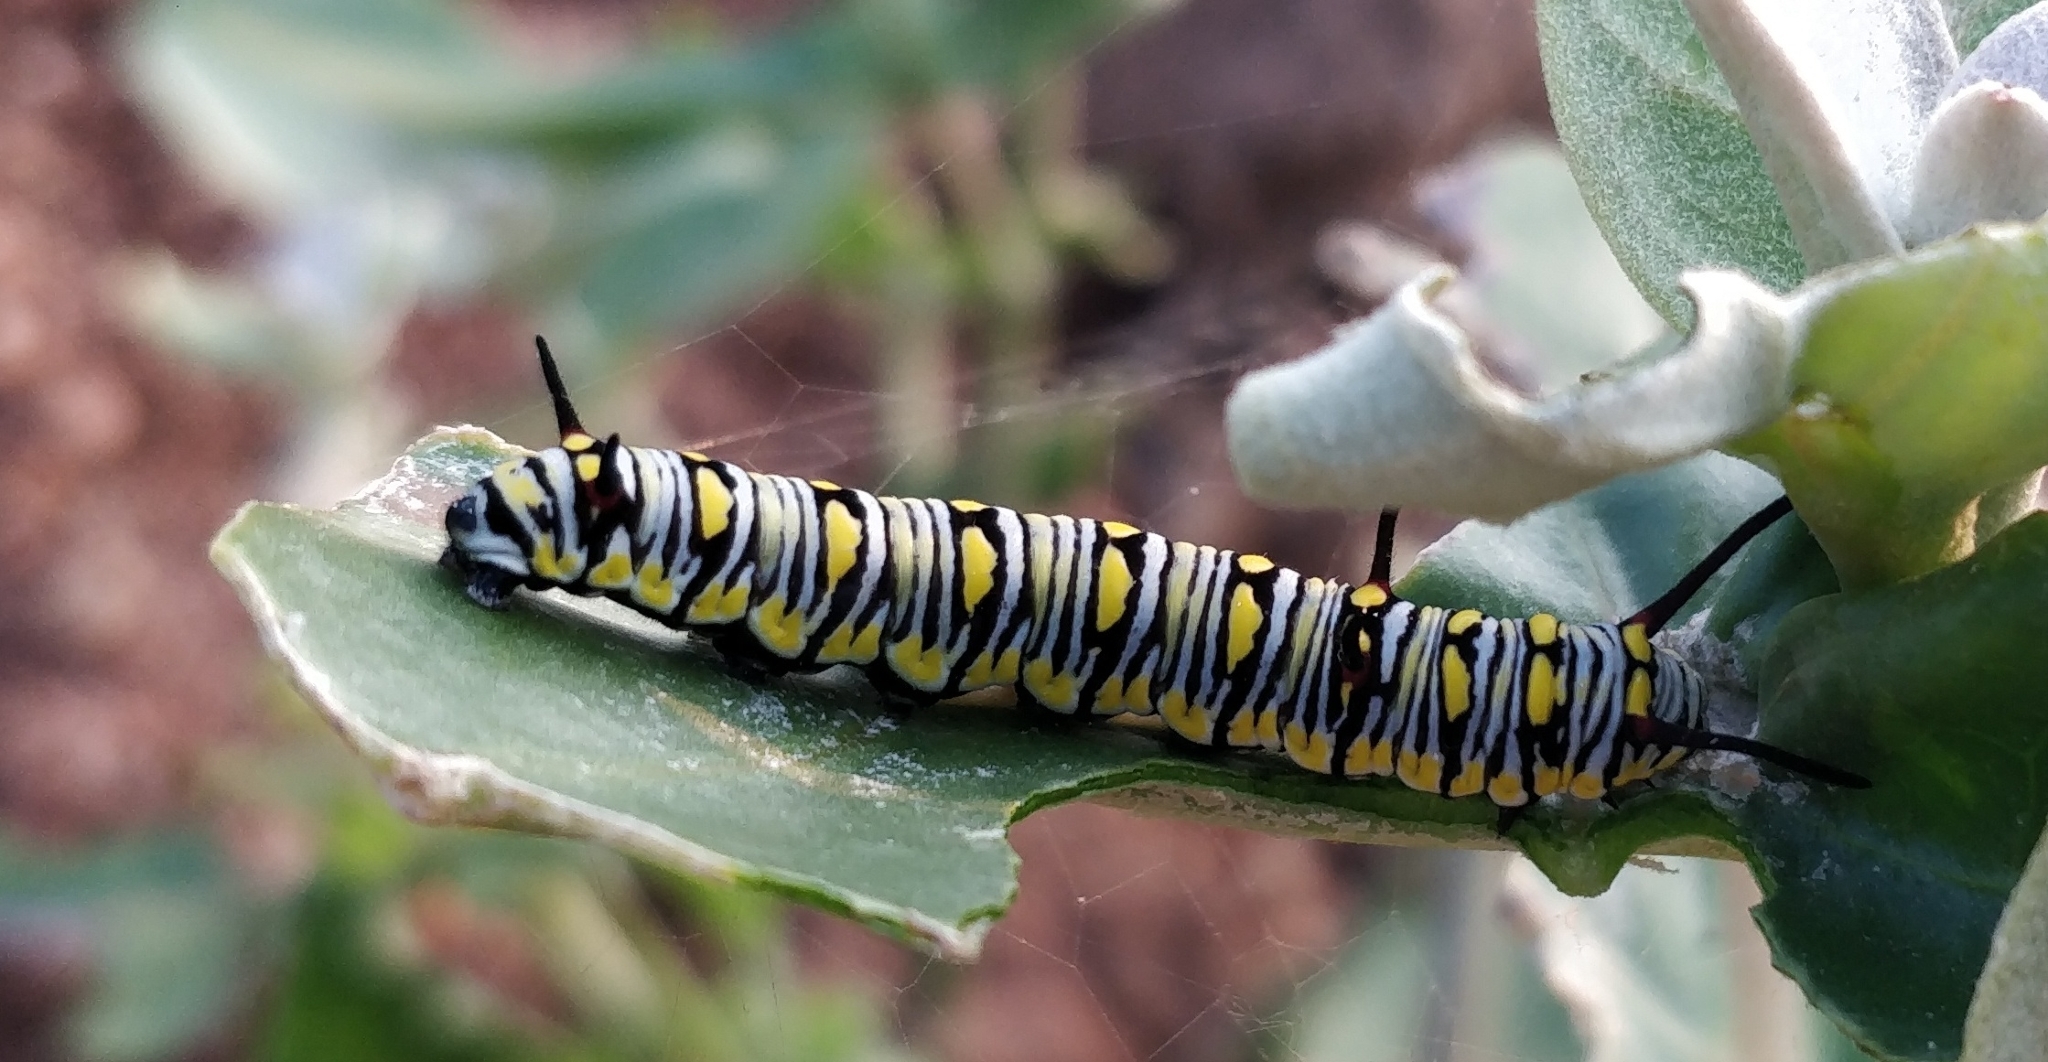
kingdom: Animalia
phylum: Arthropoda
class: Insecta
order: Lepidoptera
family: Nymphalidae
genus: Danaus
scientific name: Danaus chrysippus
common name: Plain tiger
